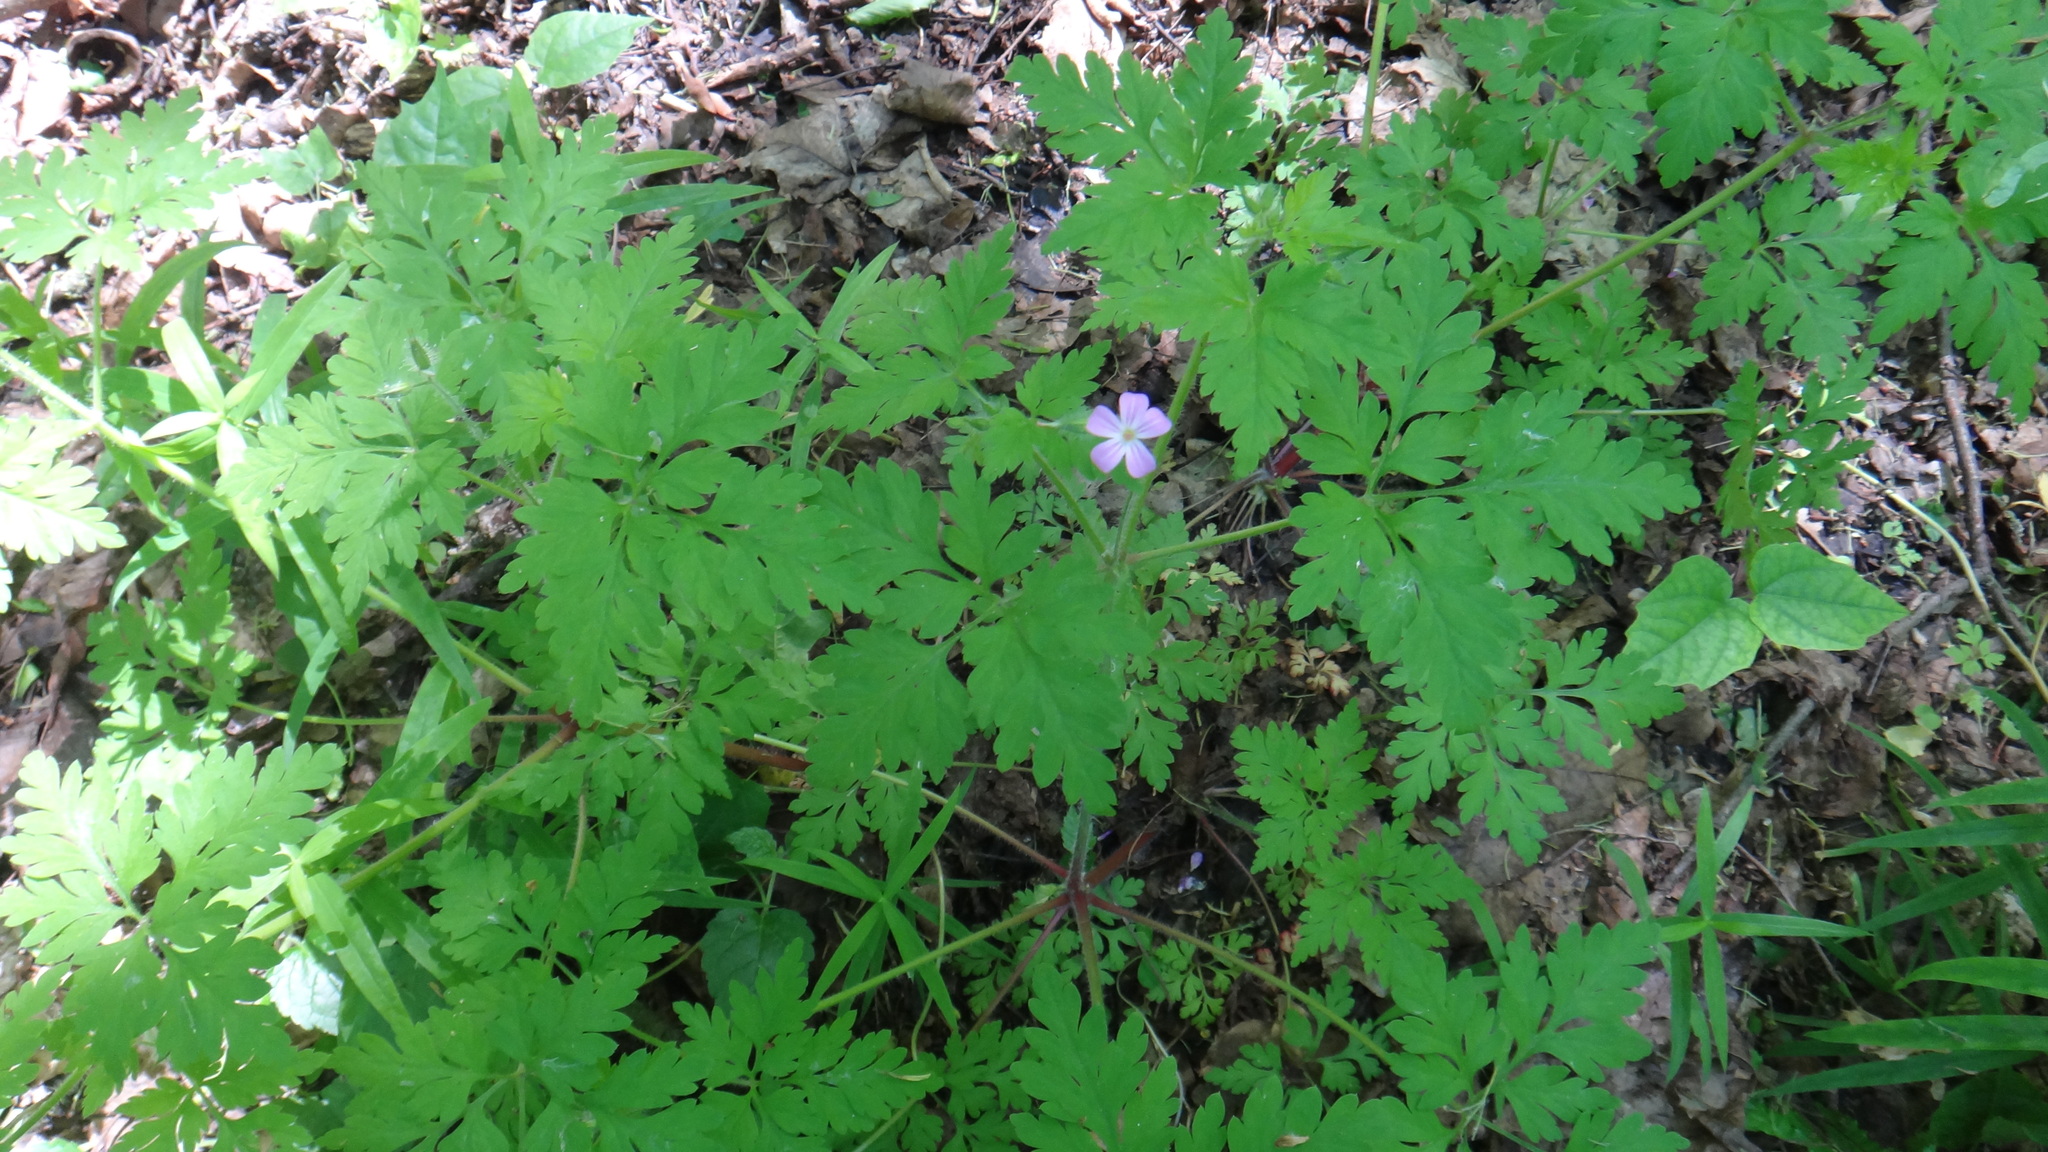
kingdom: Plantae
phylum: Tracheophyta
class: Magnoliopsida
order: Geraniales
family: Geraniaceae
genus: Geranium
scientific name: Geranium robertianum
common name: Herb-robert
